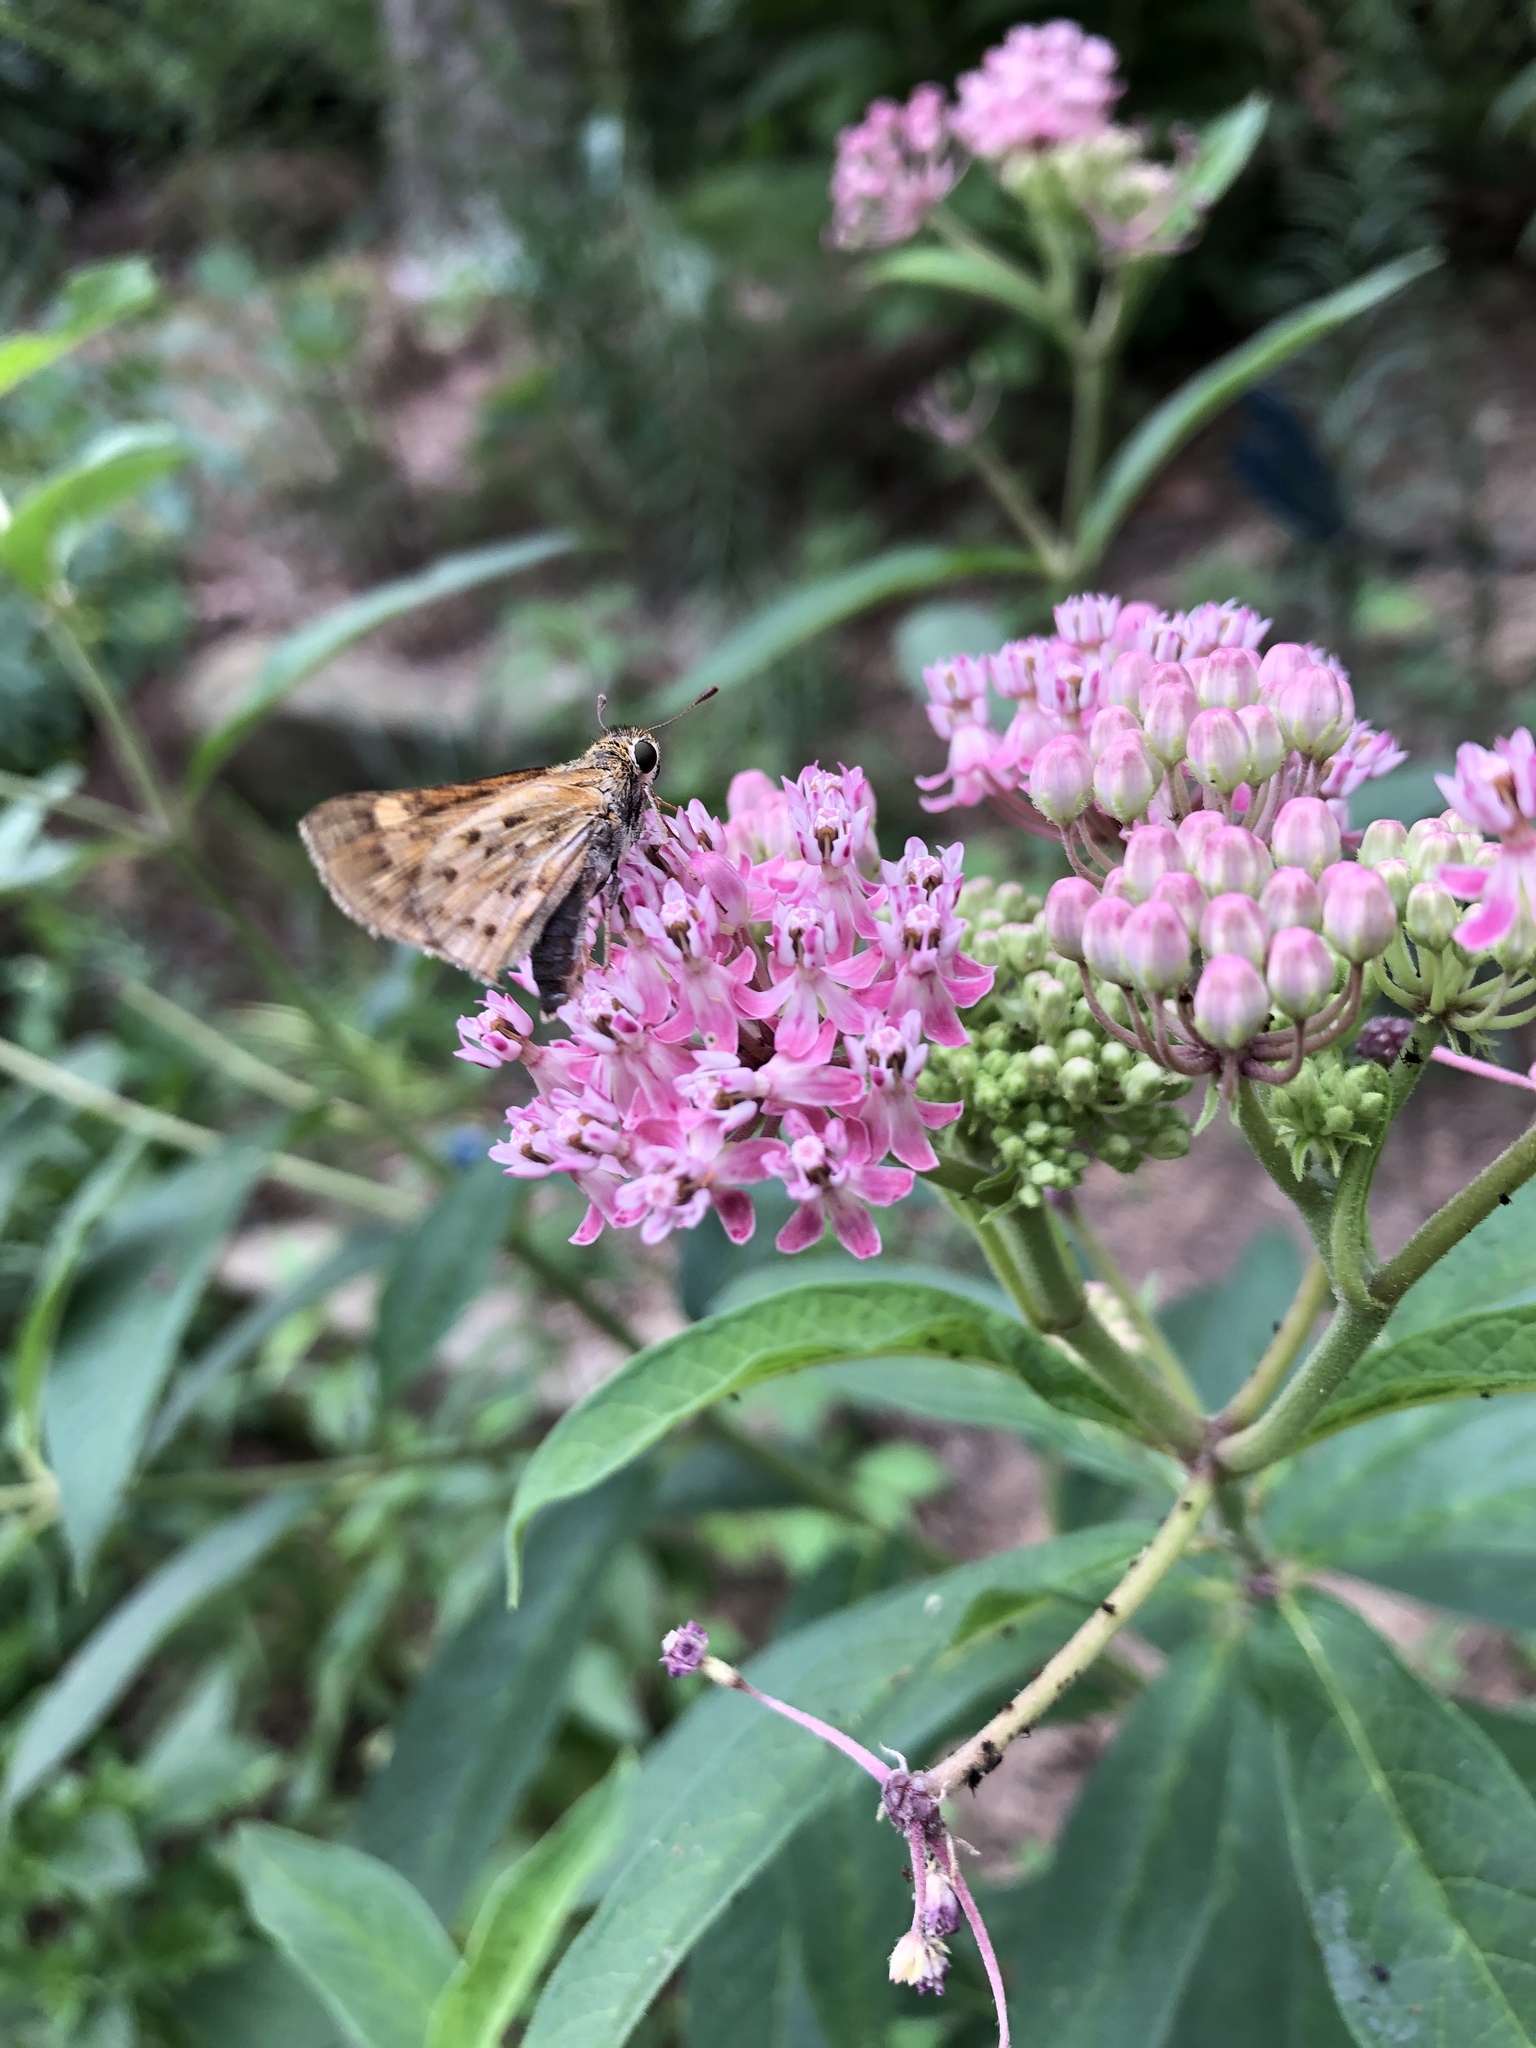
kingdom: Animalia
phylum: Arthropoda
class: Insecta
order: Lepidoptera
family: Hesperiidae
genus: Hylephila
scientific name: Hylephila phyleus
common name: Fiery skipper
